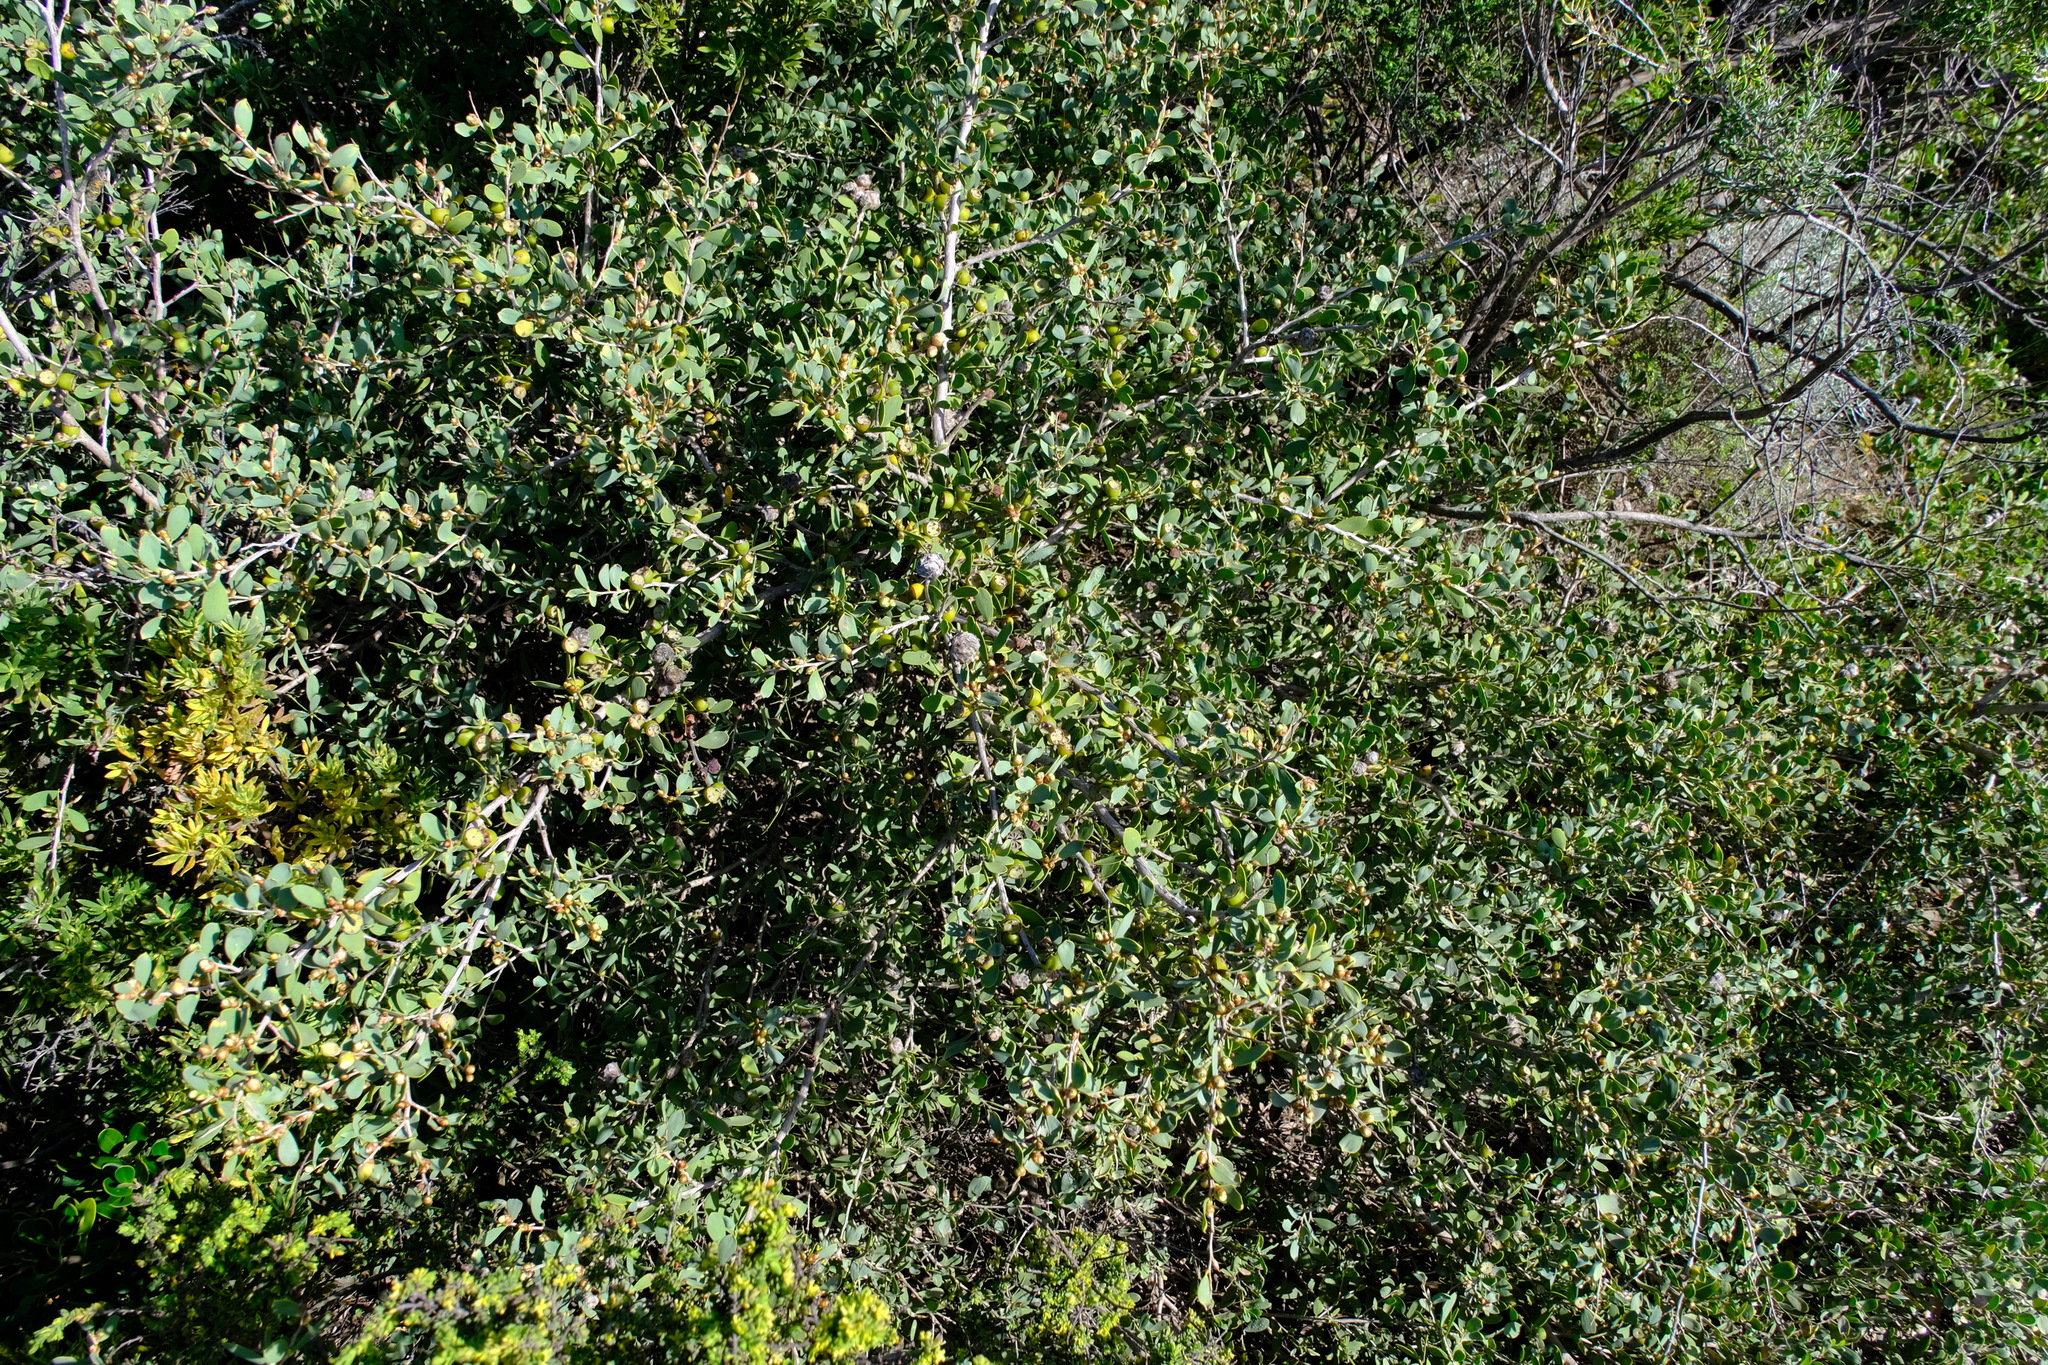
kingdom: Plantae
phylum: Tracheophyta
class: Magnoliopsida
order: Myrtales
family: Myrtaceae
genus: Leptospermum
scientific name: Leptospermum laevigatum
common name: Australian teatree
